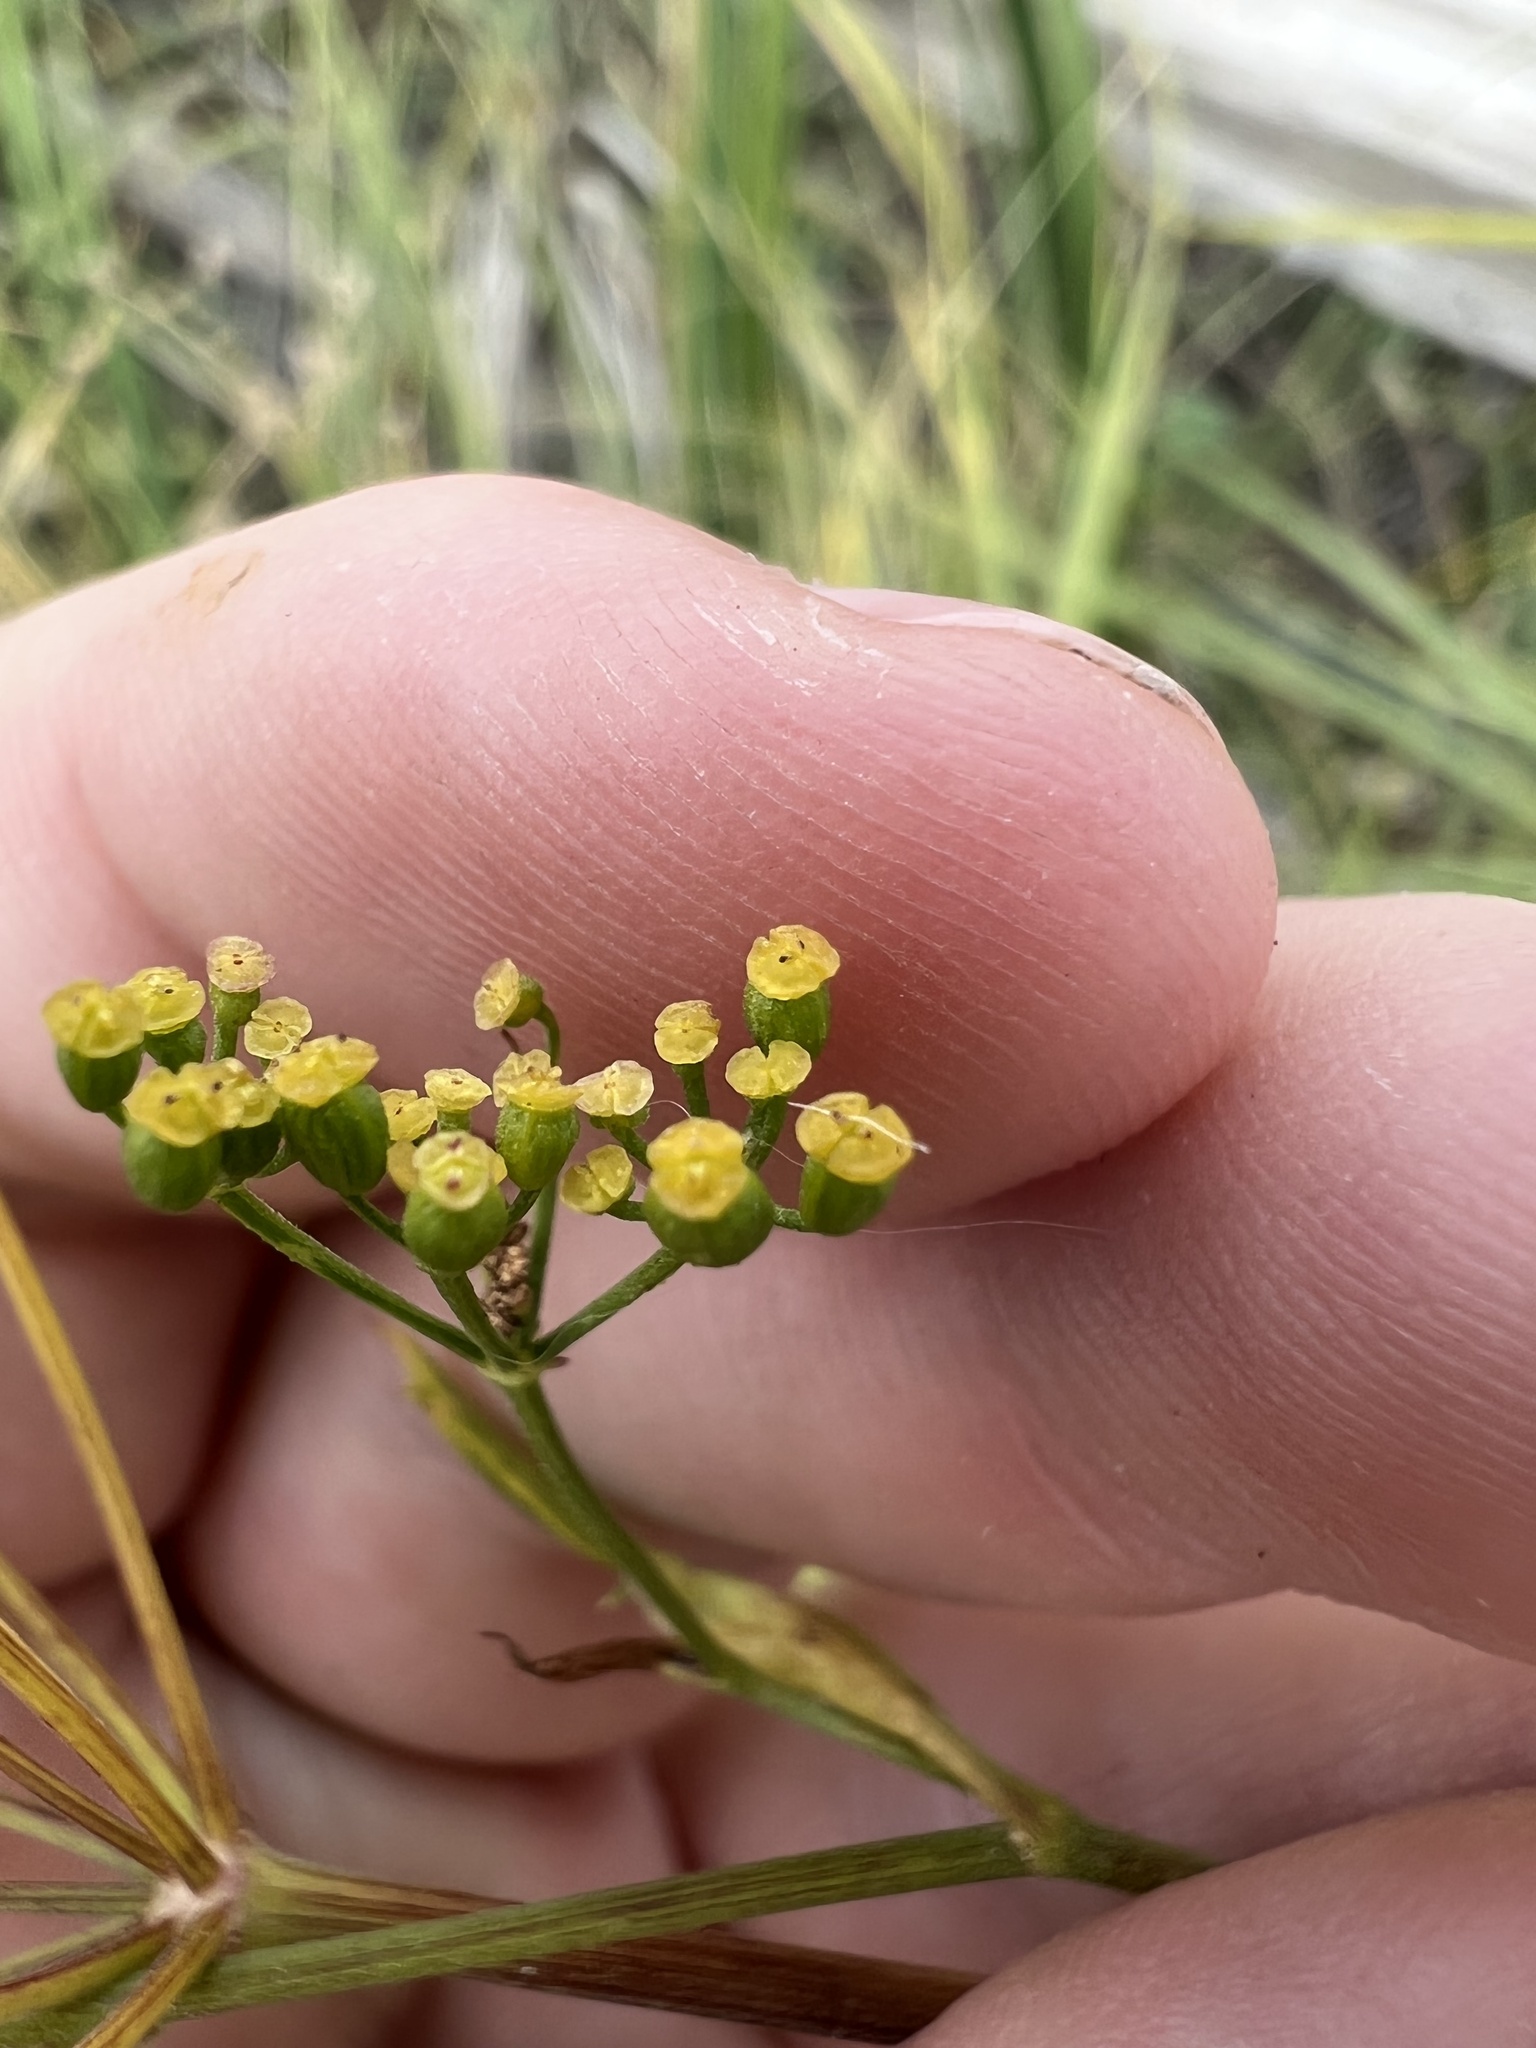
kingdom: Plantae
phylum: Tracheophyta
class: Magnoliopsida
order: Apiales
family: Apiaceae
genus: Pastinaca
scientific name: Pastinaca sativa
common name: Wild parsnip
